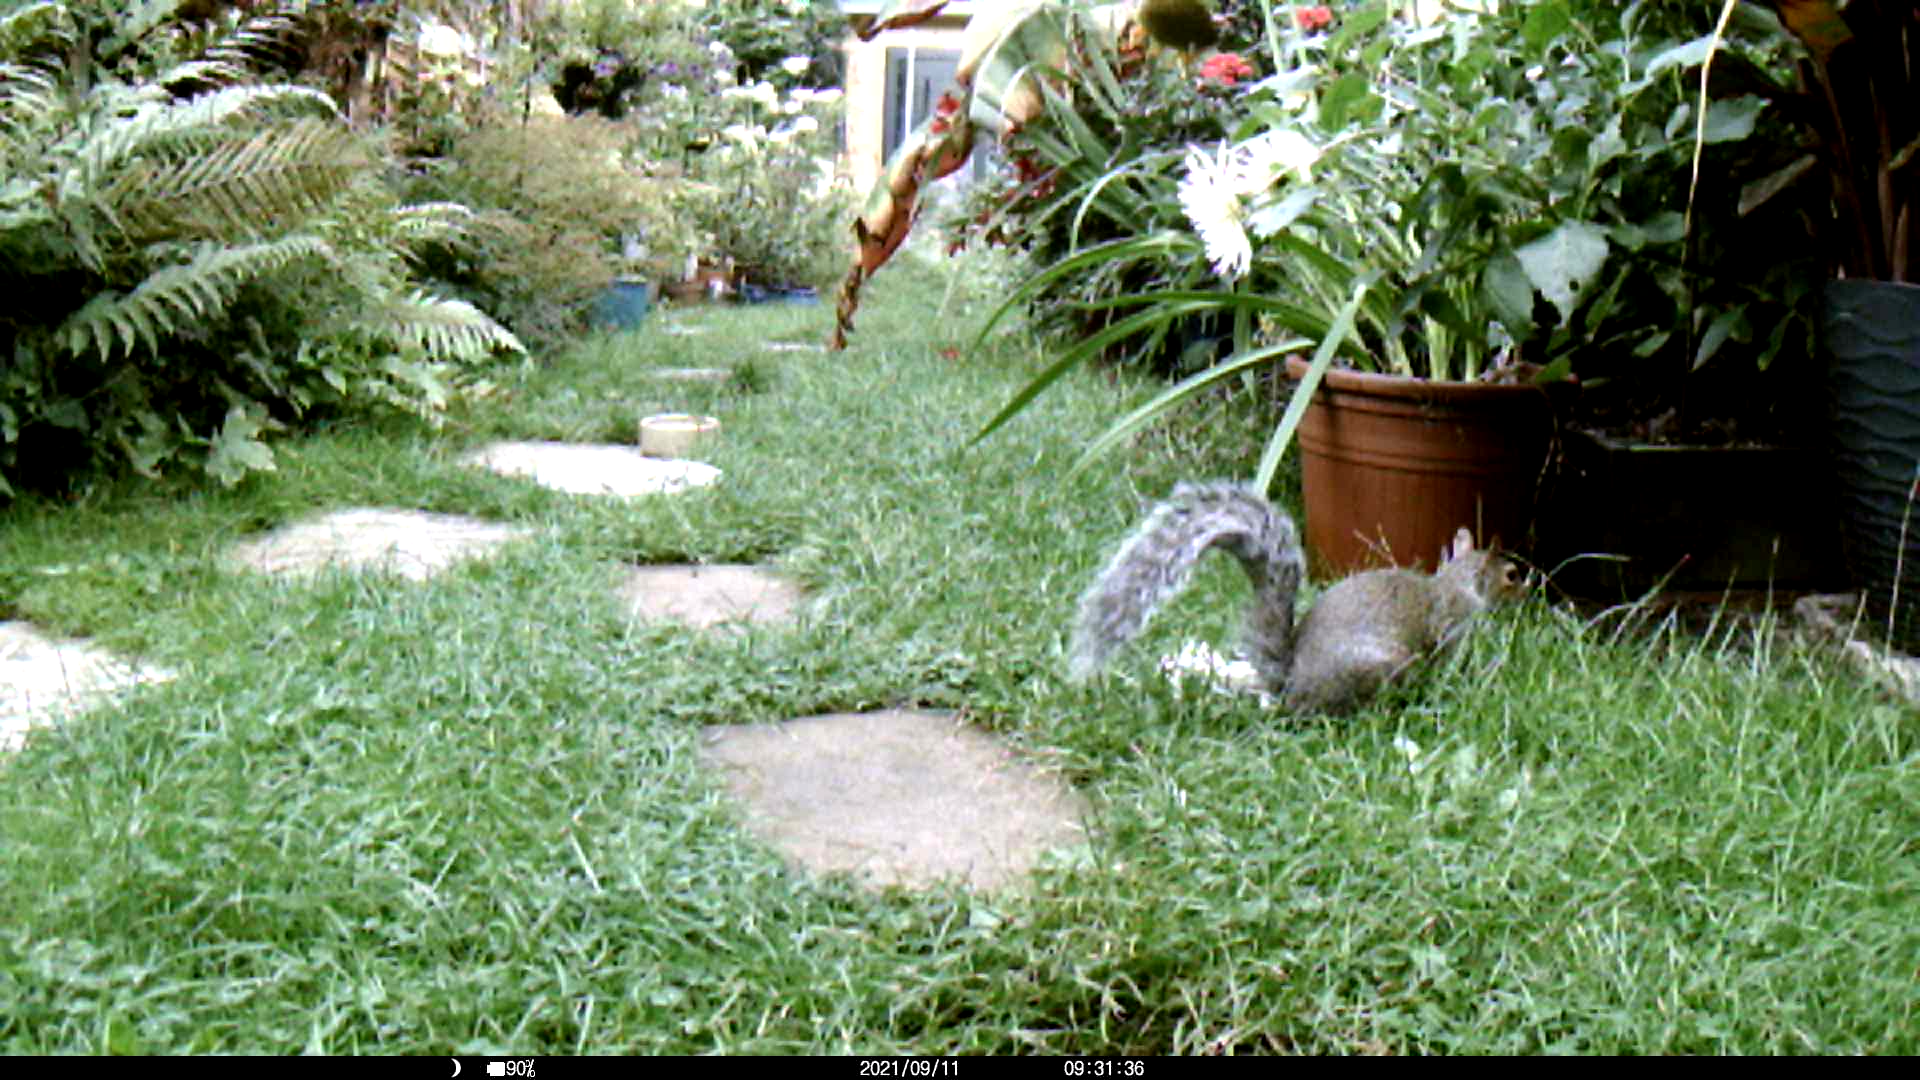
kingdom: Animalia
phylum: Chordata
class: Mammalia
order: Rodentia
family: Sciuridae
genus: Sciurus
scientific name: Sciurus carolinensis
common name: Eastern gray squirrel
